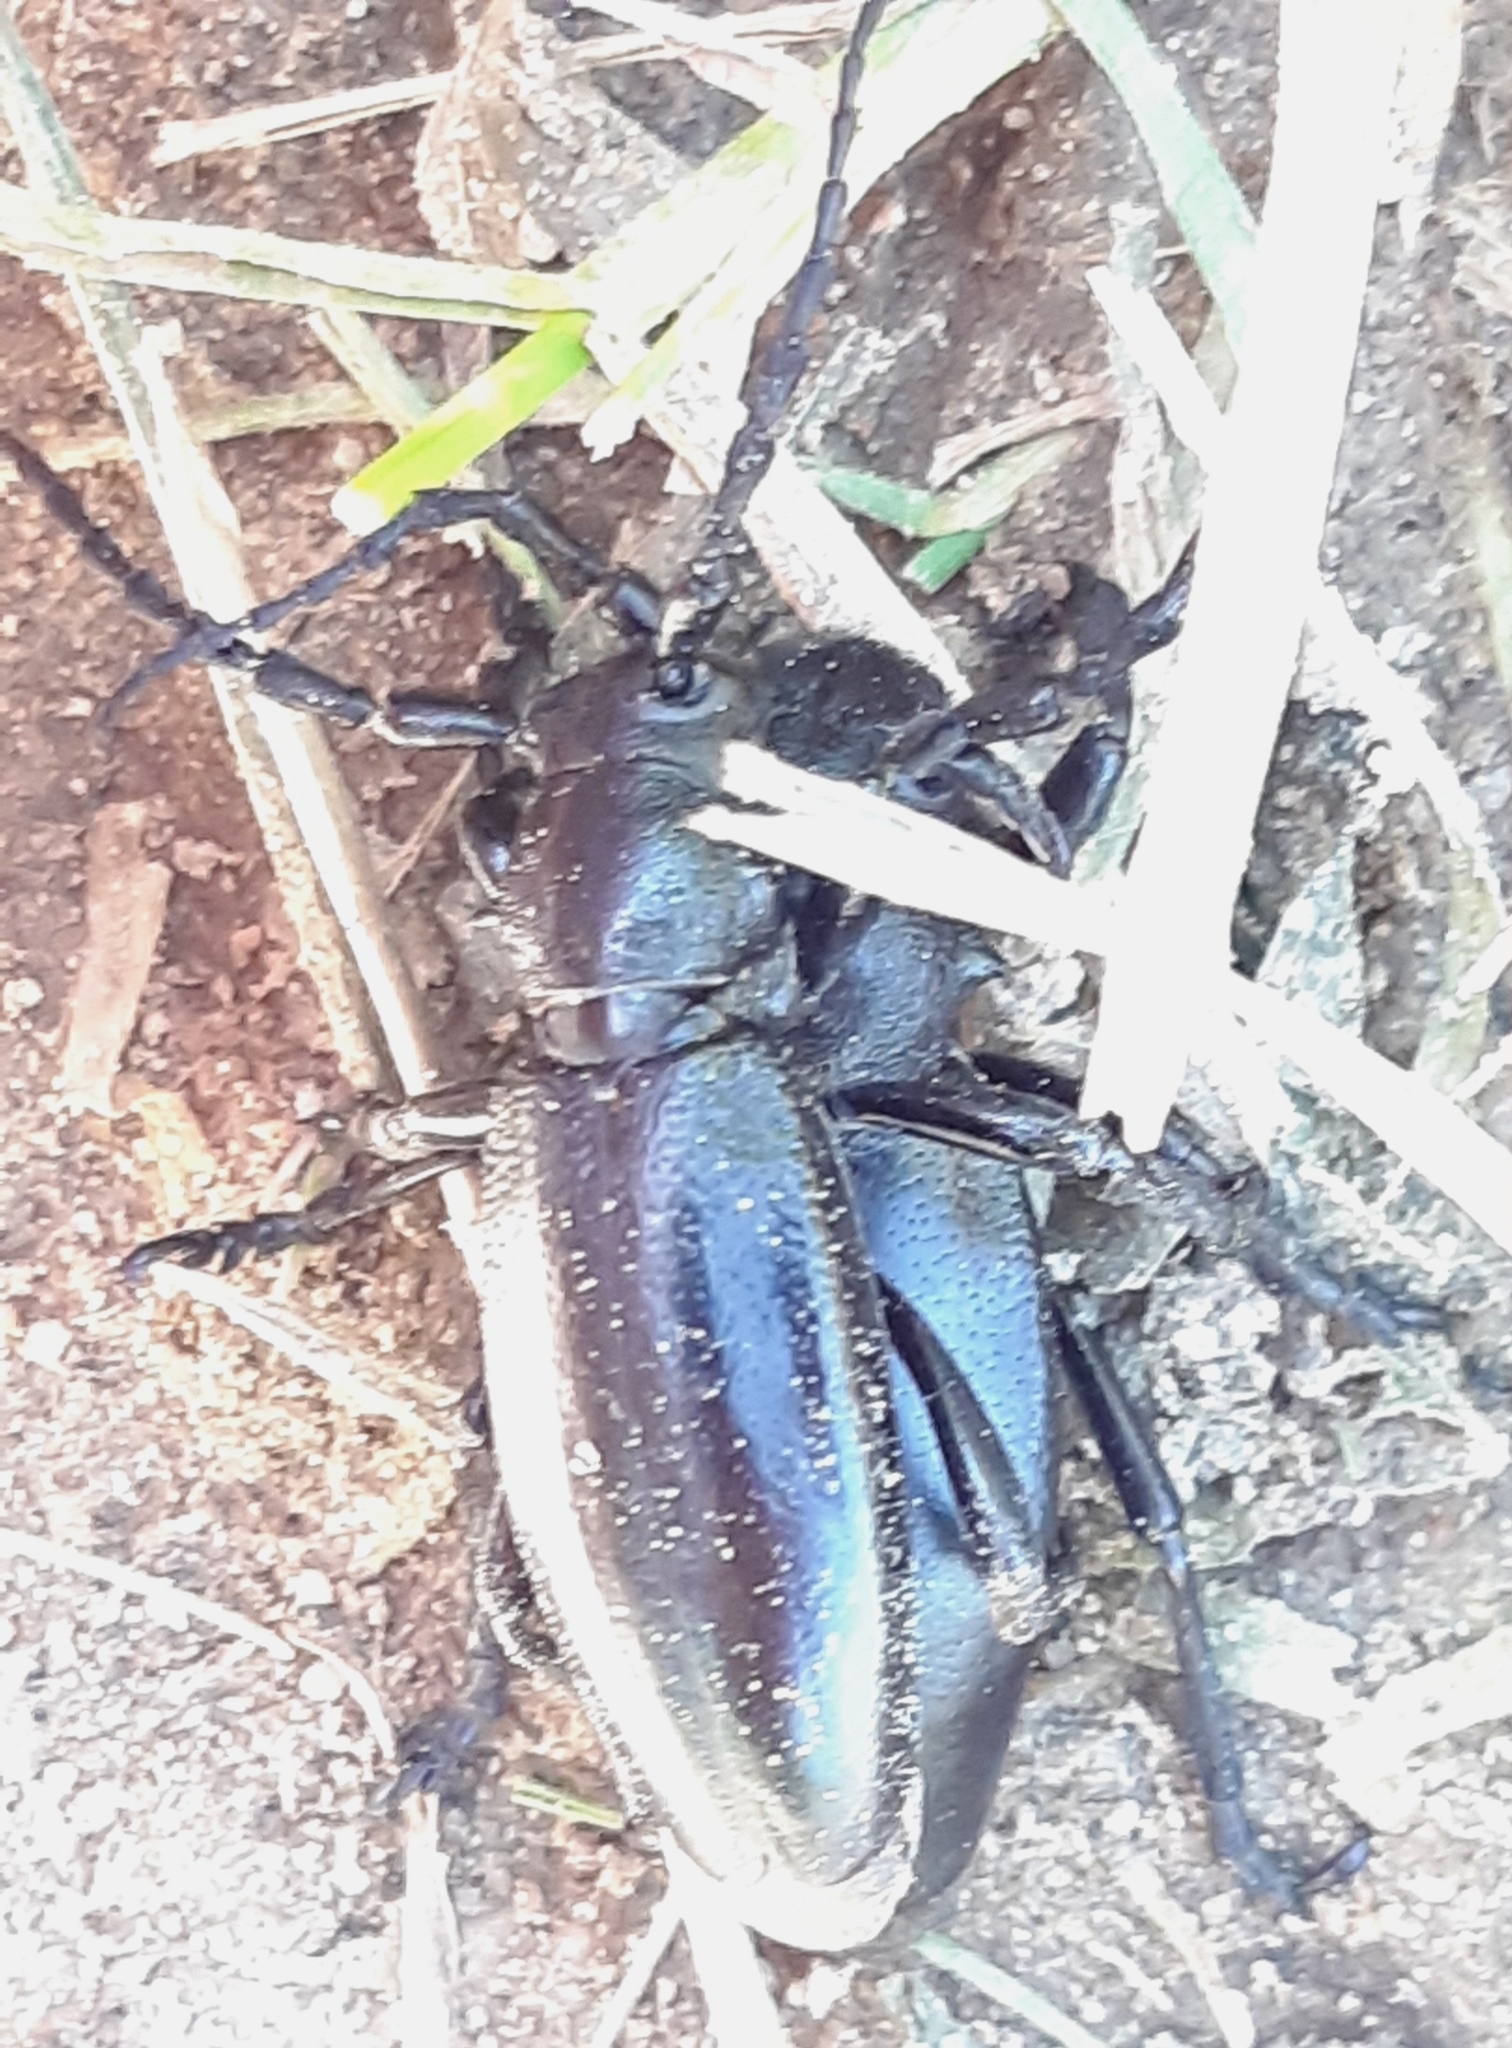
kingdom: Animalia
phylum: Arthropoda
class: Insecta
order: Coleoptera
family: Cerambycidae
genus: Dorcadion
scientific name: Dorcadion aethiops
